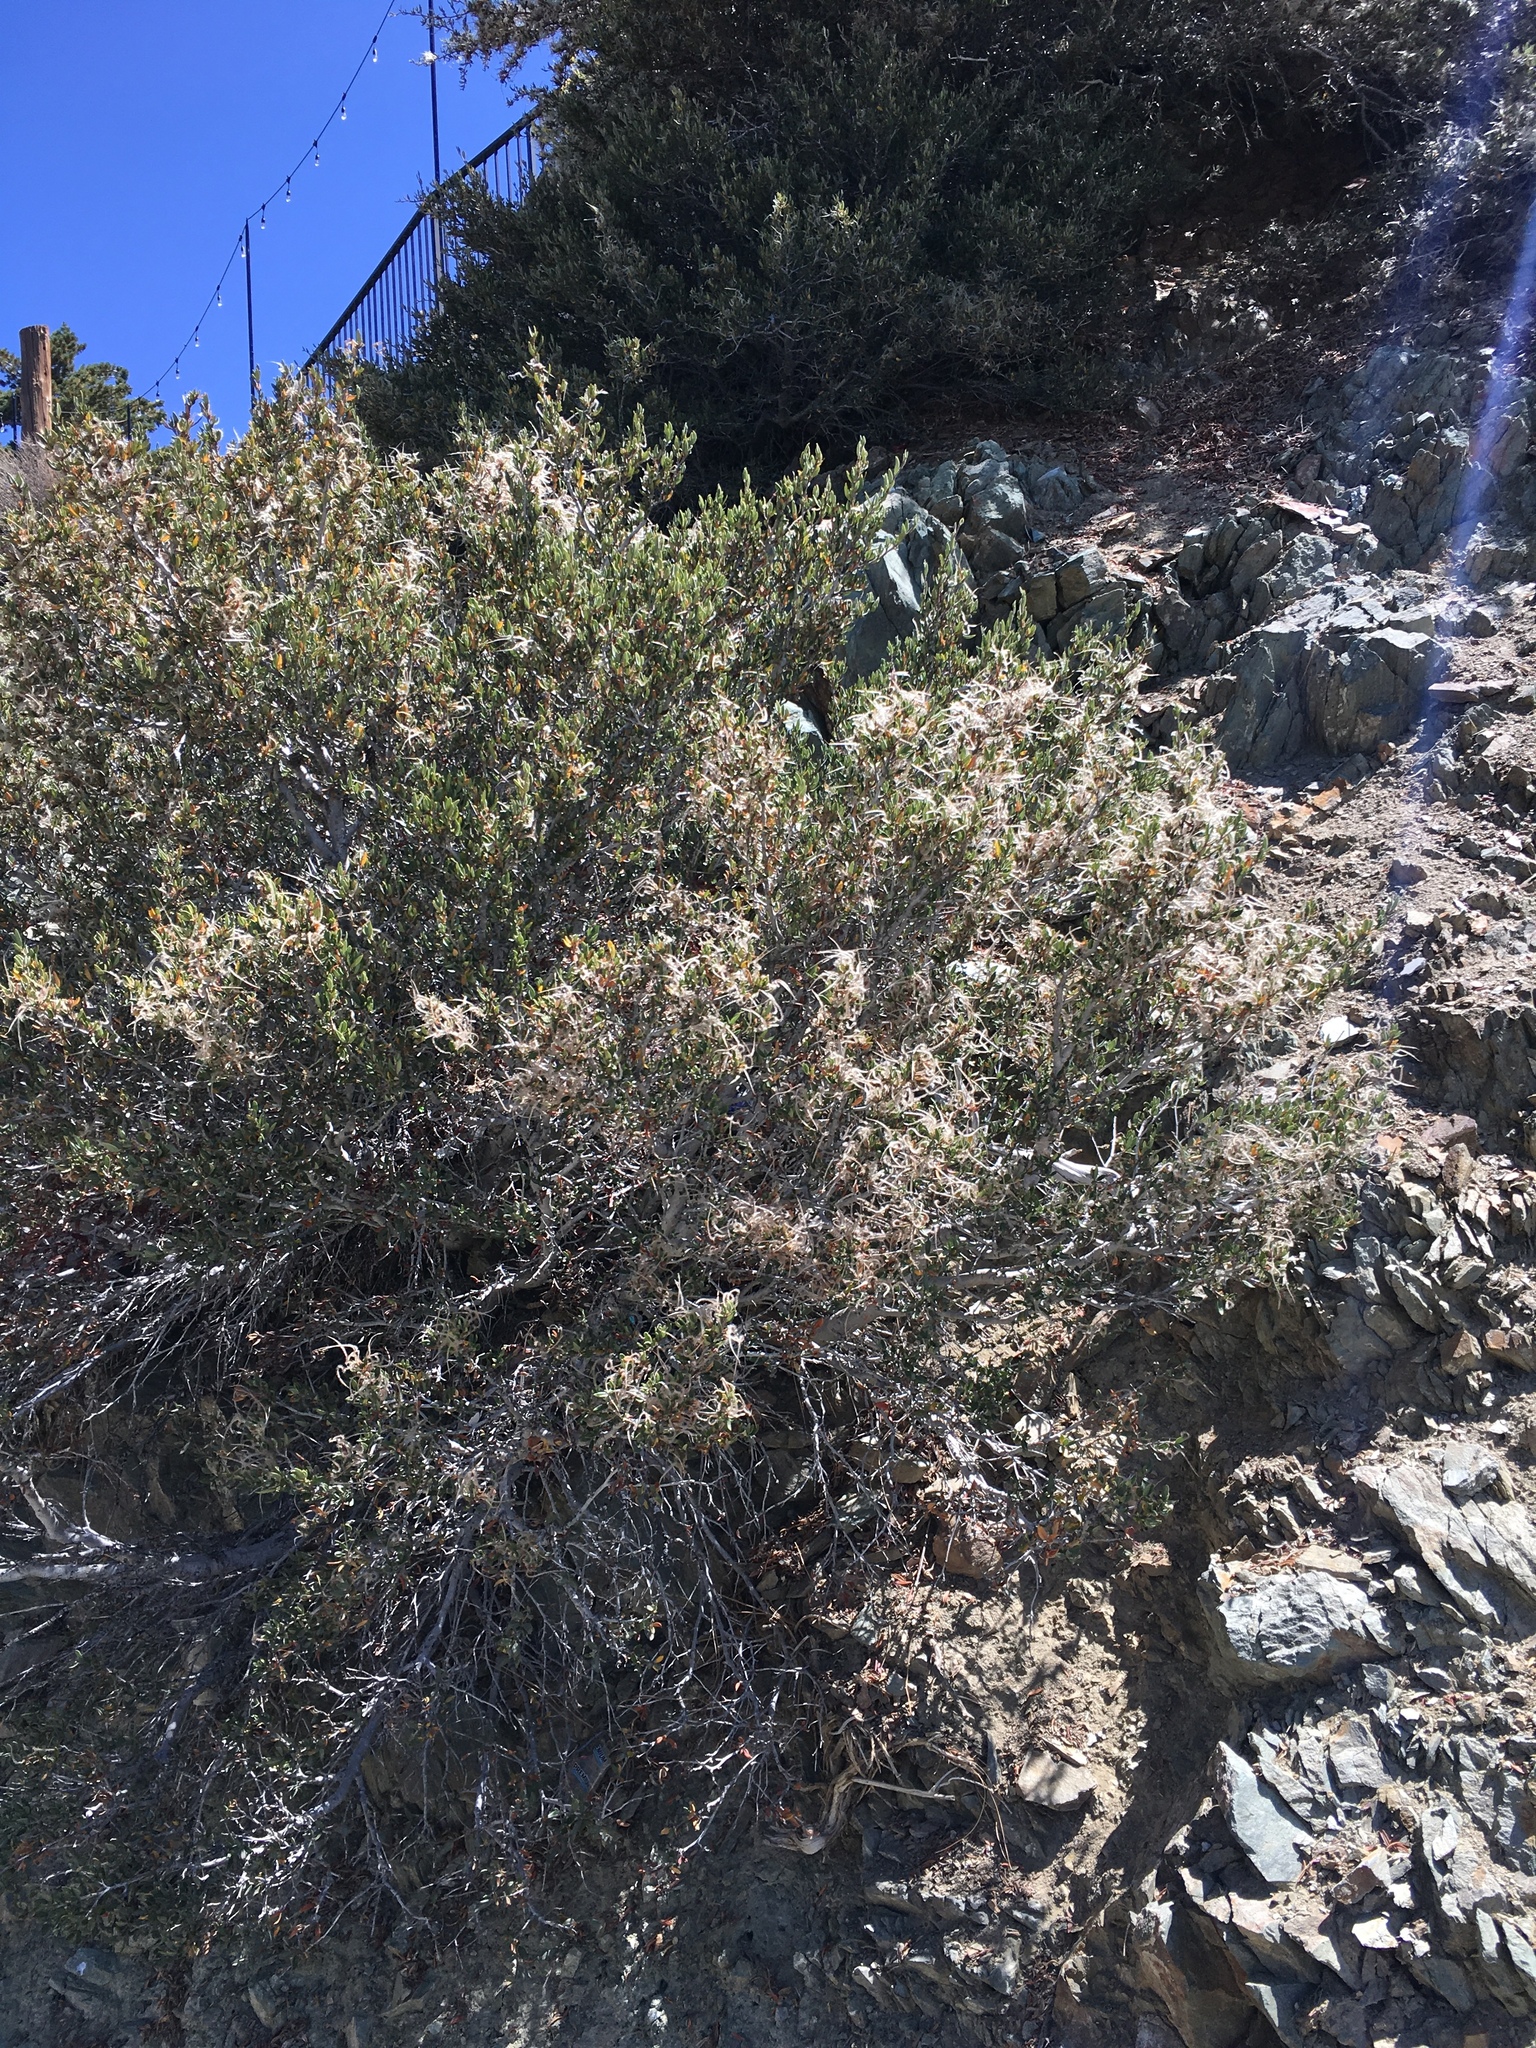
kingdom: Plantae
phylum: Tracheophyta
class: Magnoliopsida
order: Rosales
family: Rosaceae
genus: Cercocarpus
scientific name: Cercocarpus
